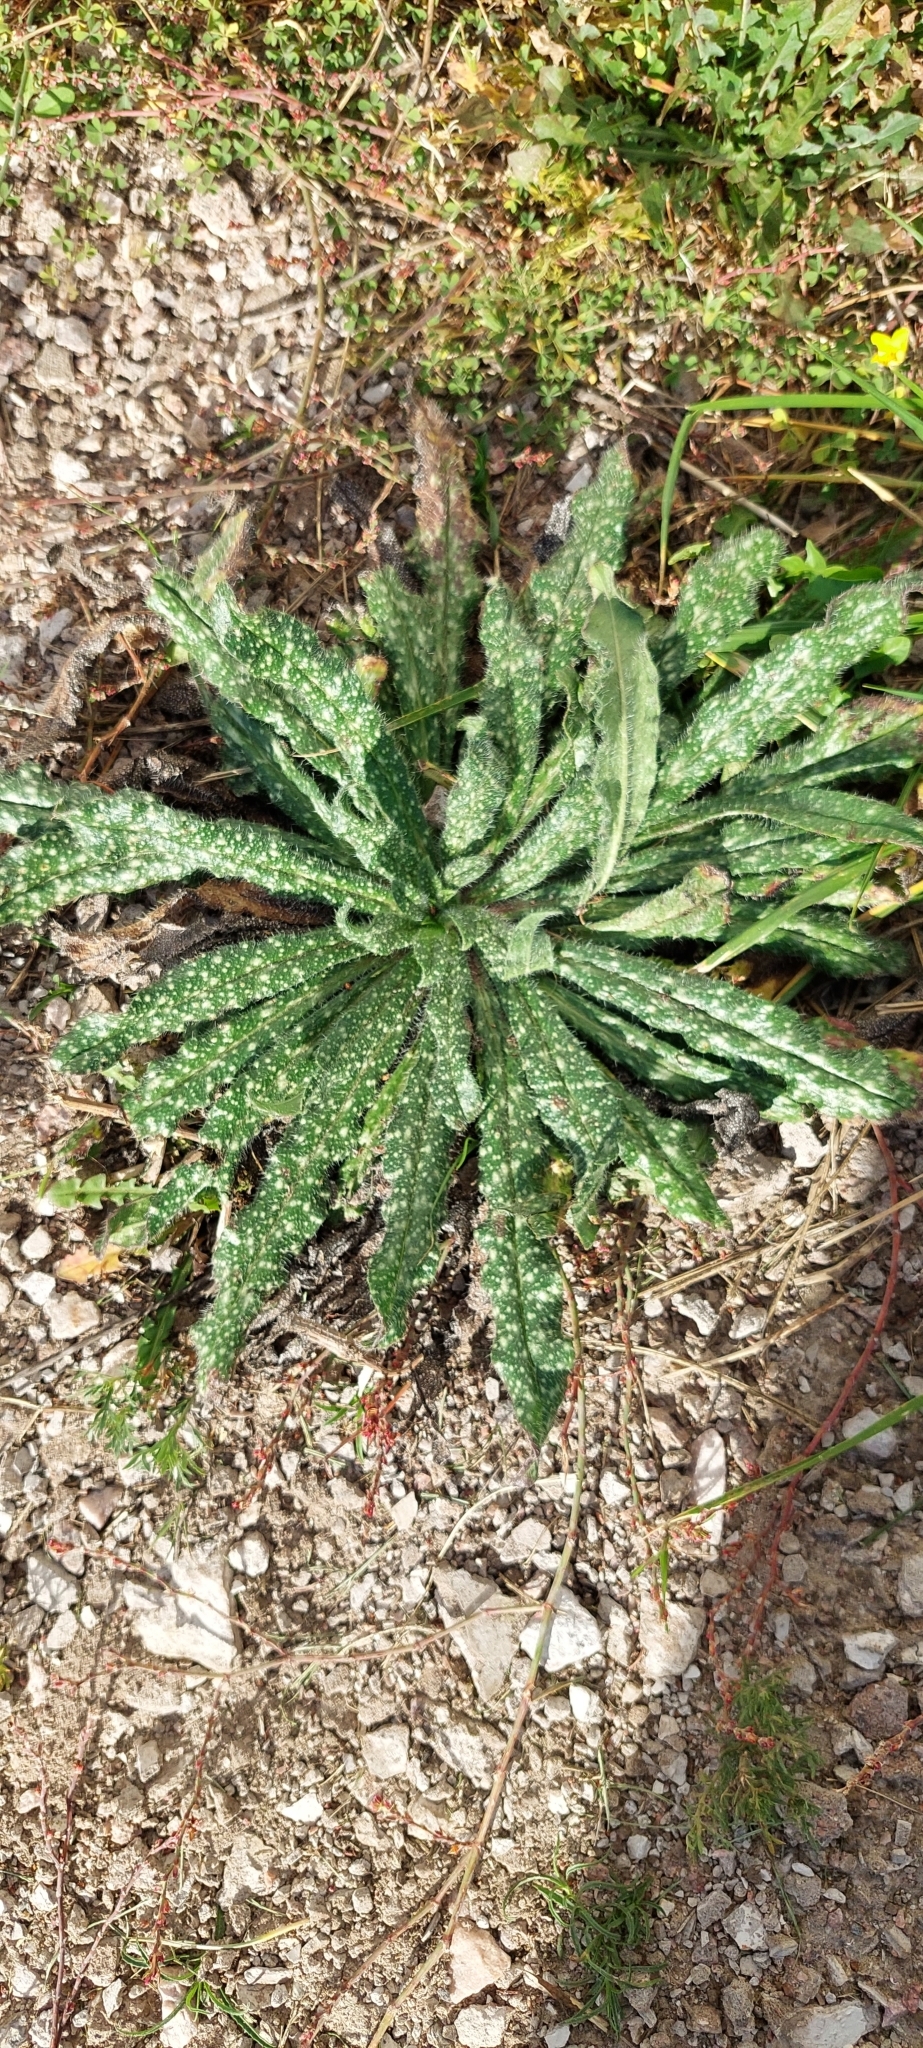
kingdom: Plantae
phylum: Tracheophyta
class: Magnoliopsida
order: Boraginales
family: Boraginaceae
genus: Echium
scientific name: Echium vulgare
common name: Common viper's bugloss
